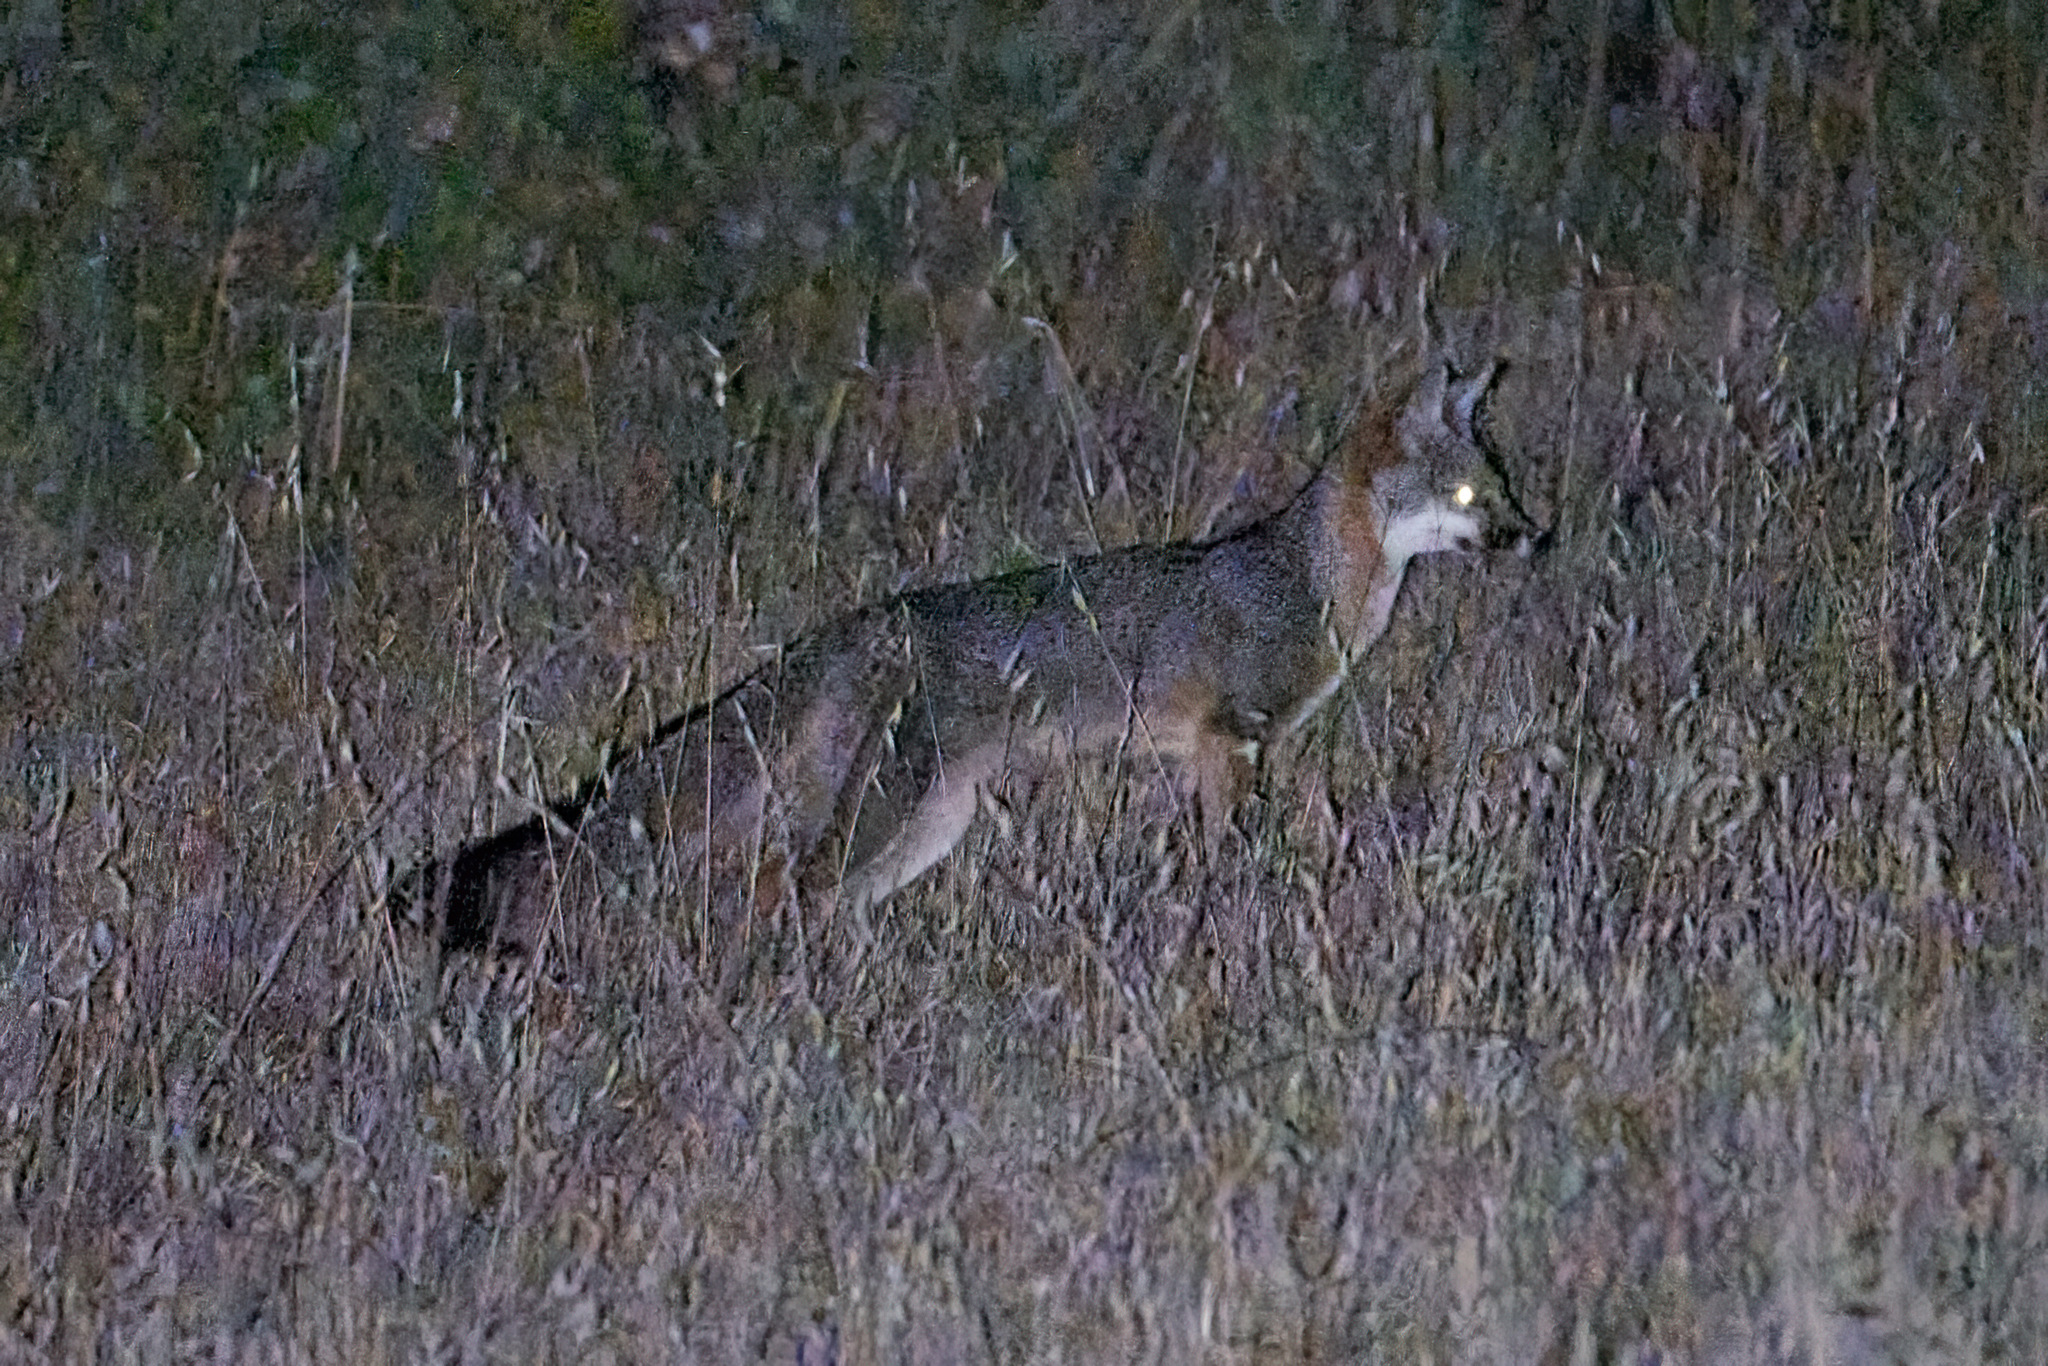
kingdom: Animalia
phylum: Chordata
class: Mammalia
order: Carnivora
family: Canidae
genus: Urocyon
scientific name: Urocyon cinereoargenteus
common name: Gray fox
